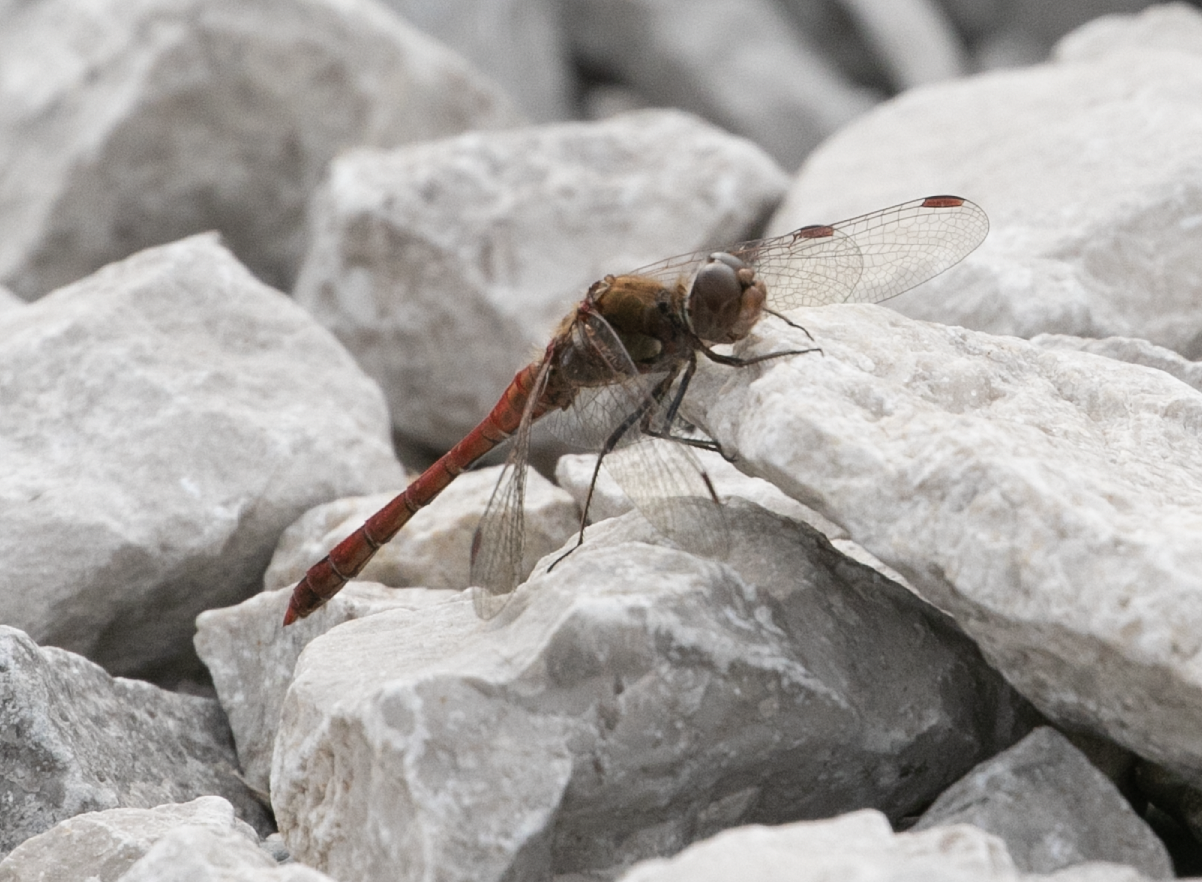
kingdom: Animalia
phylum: Arthropoda
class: Insecta
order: Odonata
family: Libellulidae
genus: Sympetrum
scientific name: Sympetrum striolatum
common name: Common darter
